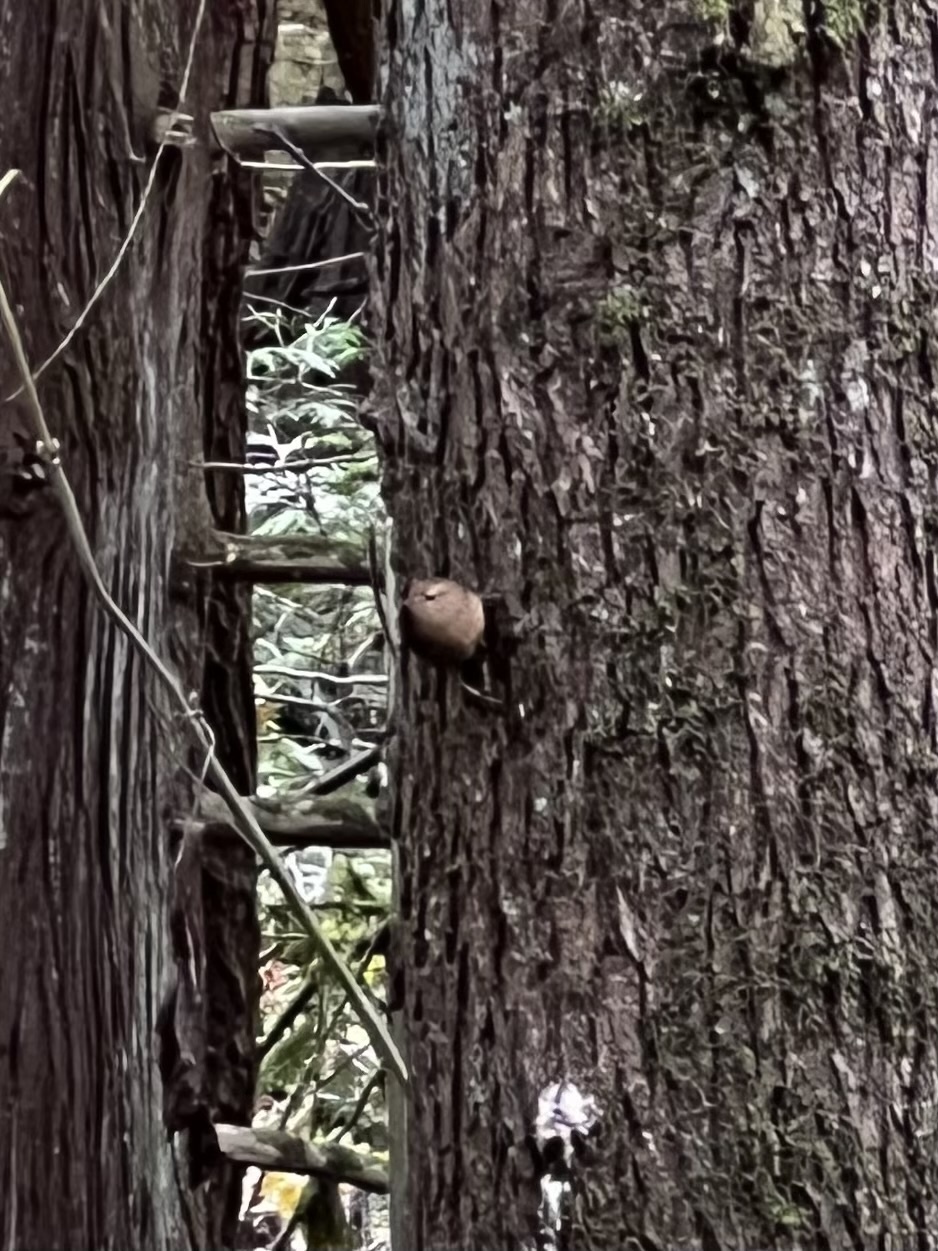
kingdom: Animalia
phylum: Chordata
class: Aves
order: Passeriformes
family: Troglodytidae
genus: Troglodytes
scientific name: Troglodytes pacificus
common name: Pacific wren
